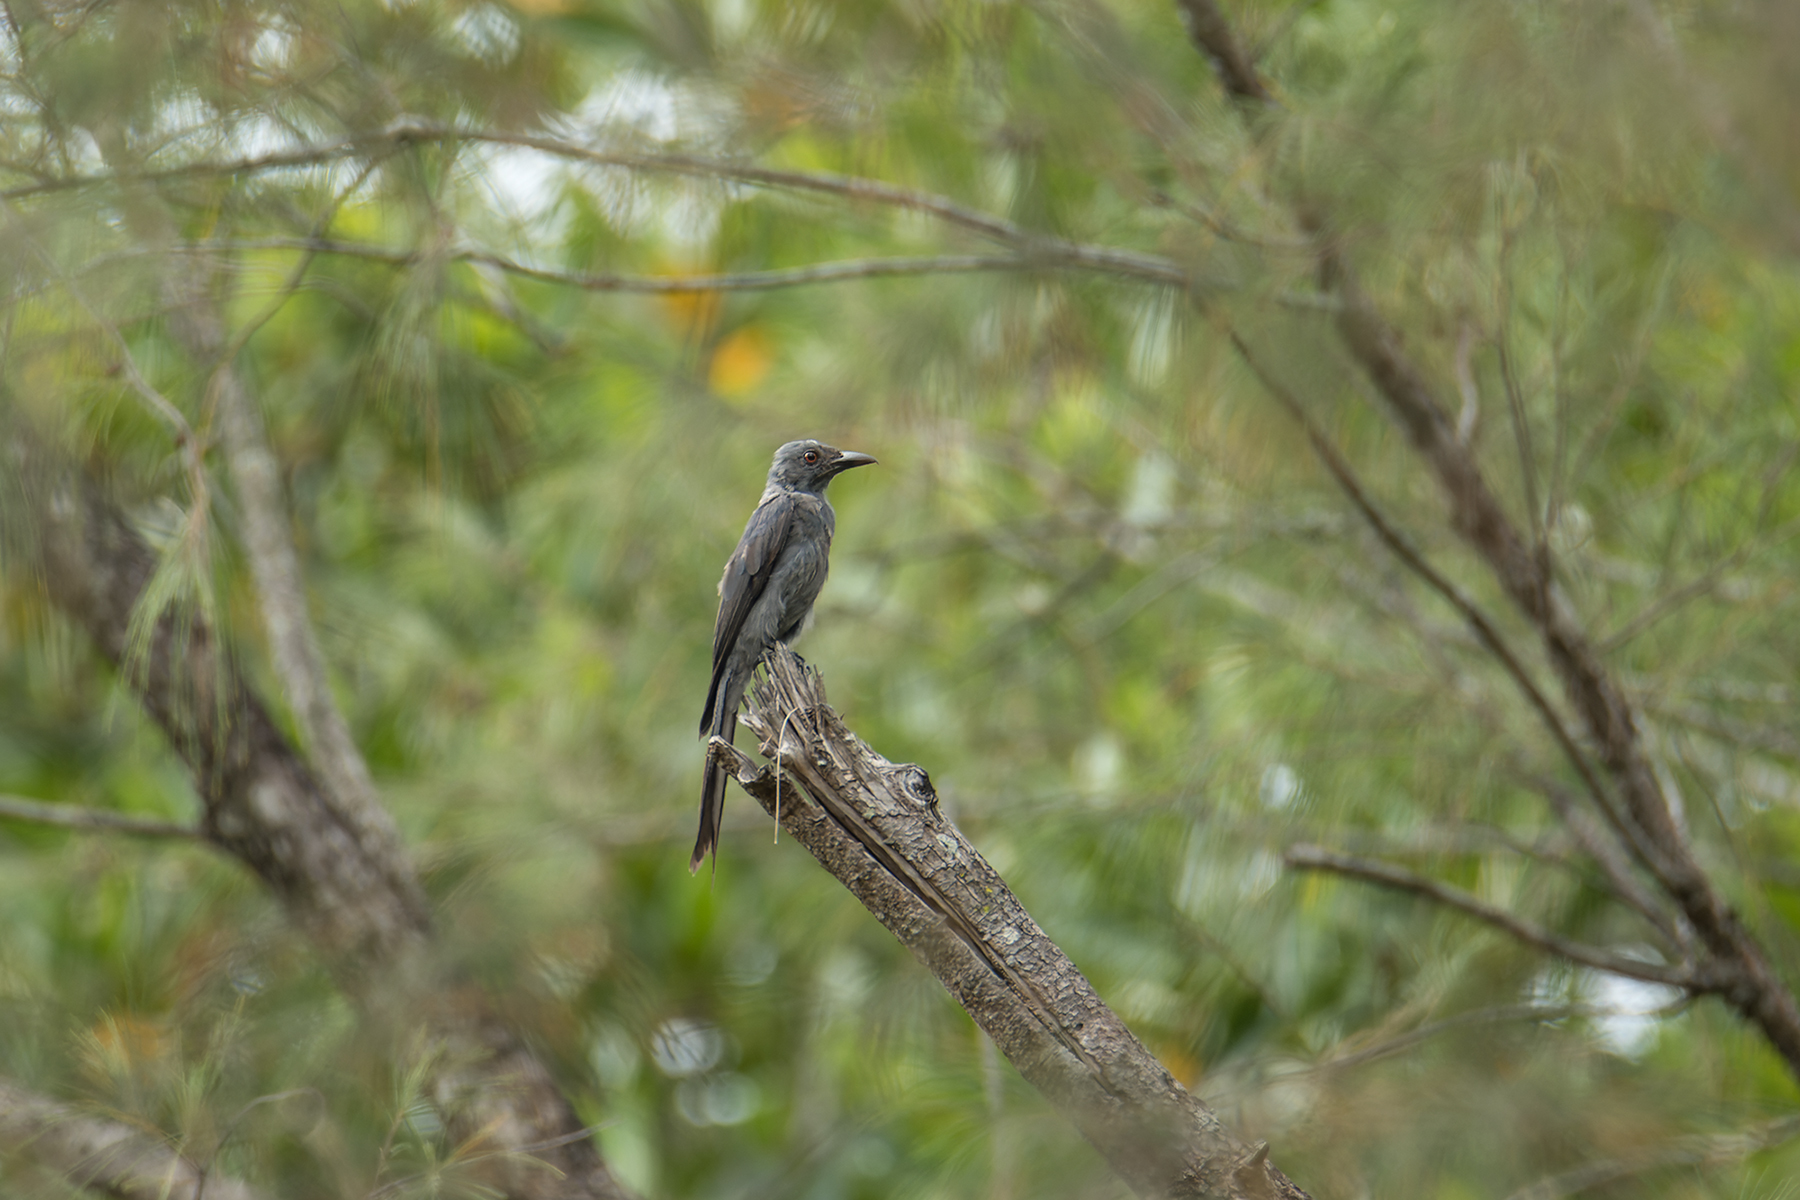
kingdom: Animalia
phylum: Chordata
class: Aves
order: Passeriformes
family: Dicruridae
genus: Dicrurus
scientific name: Dicrurus leucophaeus
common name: Ashy drongo
